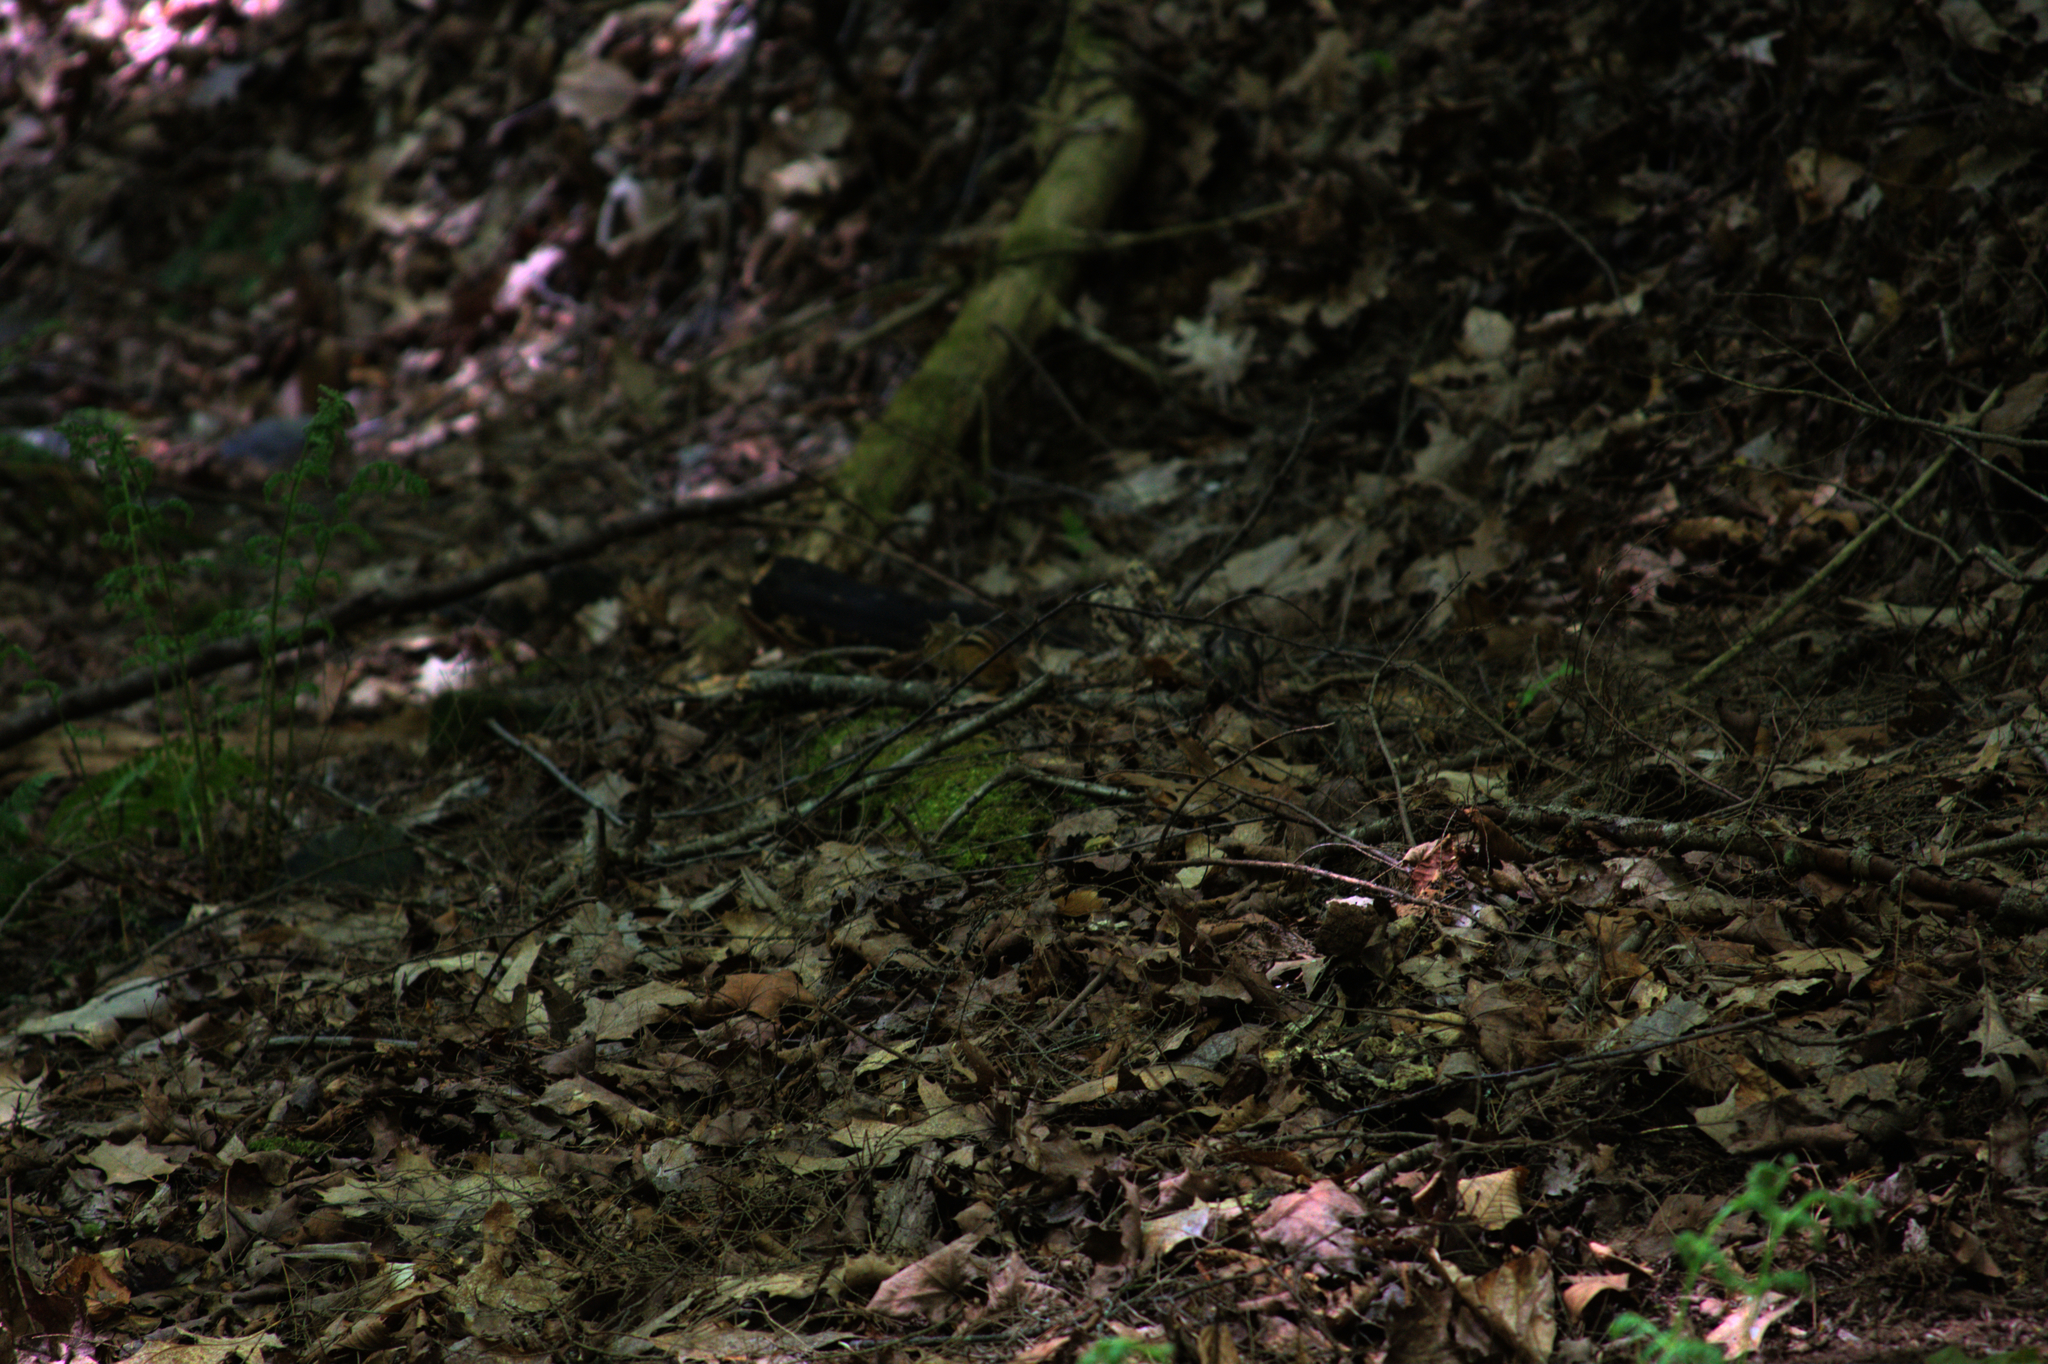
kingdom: Animalia
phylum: Chordata
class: Mammalia
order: Rodentia
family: Sciuridae
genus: Tamias
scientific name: Tamias striatus
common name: Eastern chipmunk
